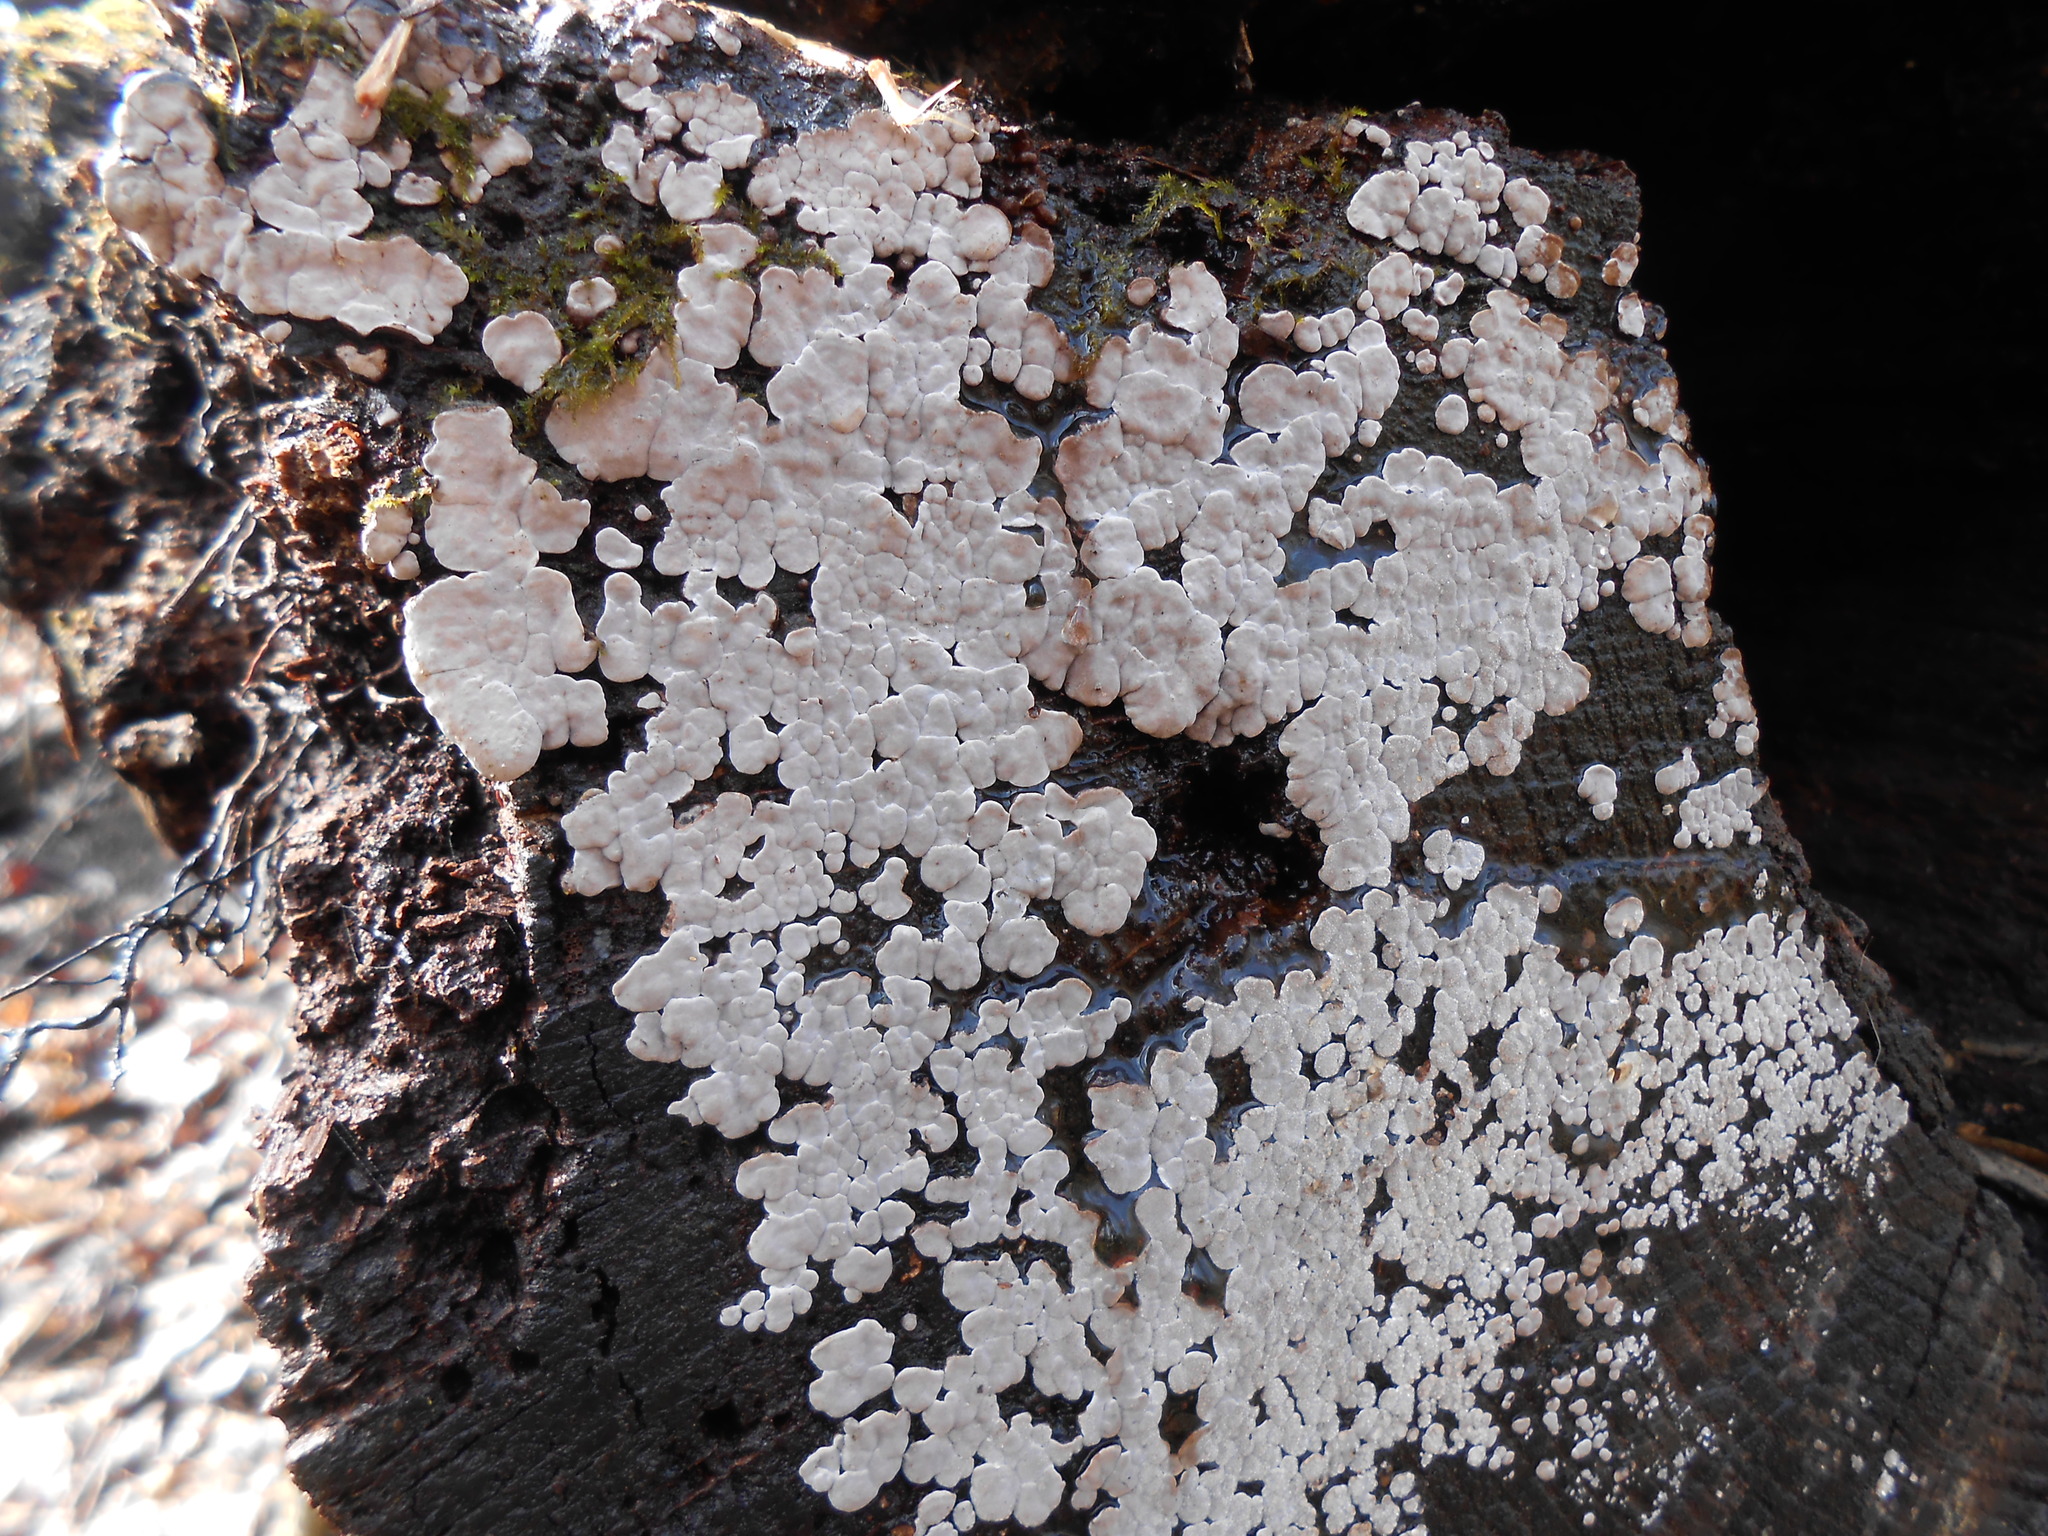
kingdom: Fungi
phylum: Basidiomycota
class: Agaricomycetes
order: Russulales
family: Stereaceae
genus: Xylobolus
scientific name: Xylobolus frustulatus
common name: Ceramic parchment
